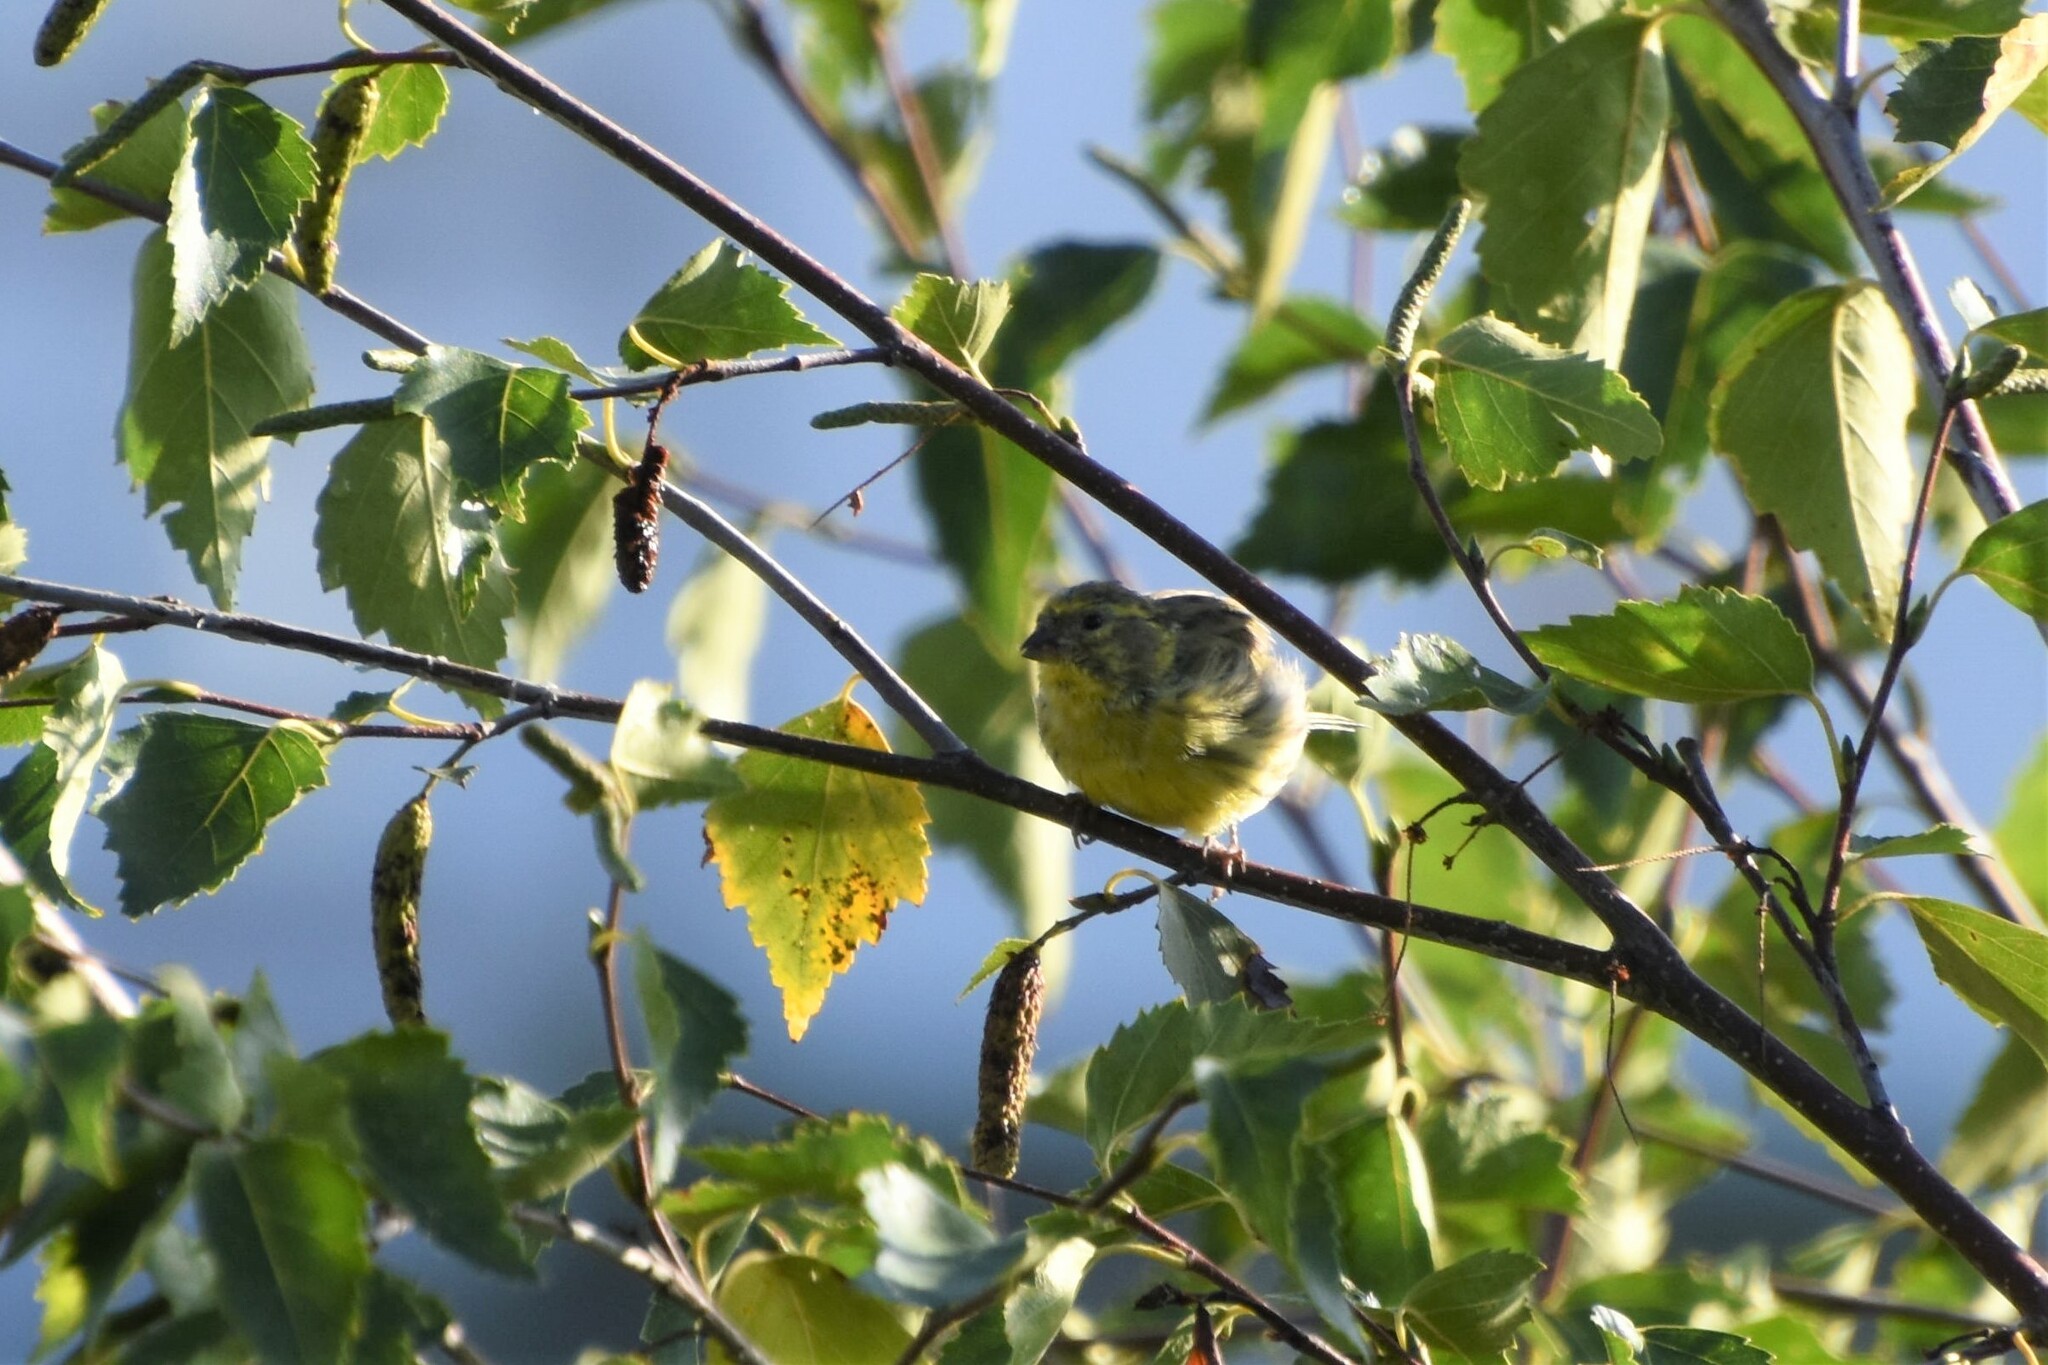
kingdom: Animalia
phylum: Chordata
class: Aves
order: Passeriformes
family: Fringillidae
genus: Serinus
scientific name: Serinus serinus
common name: European serin
